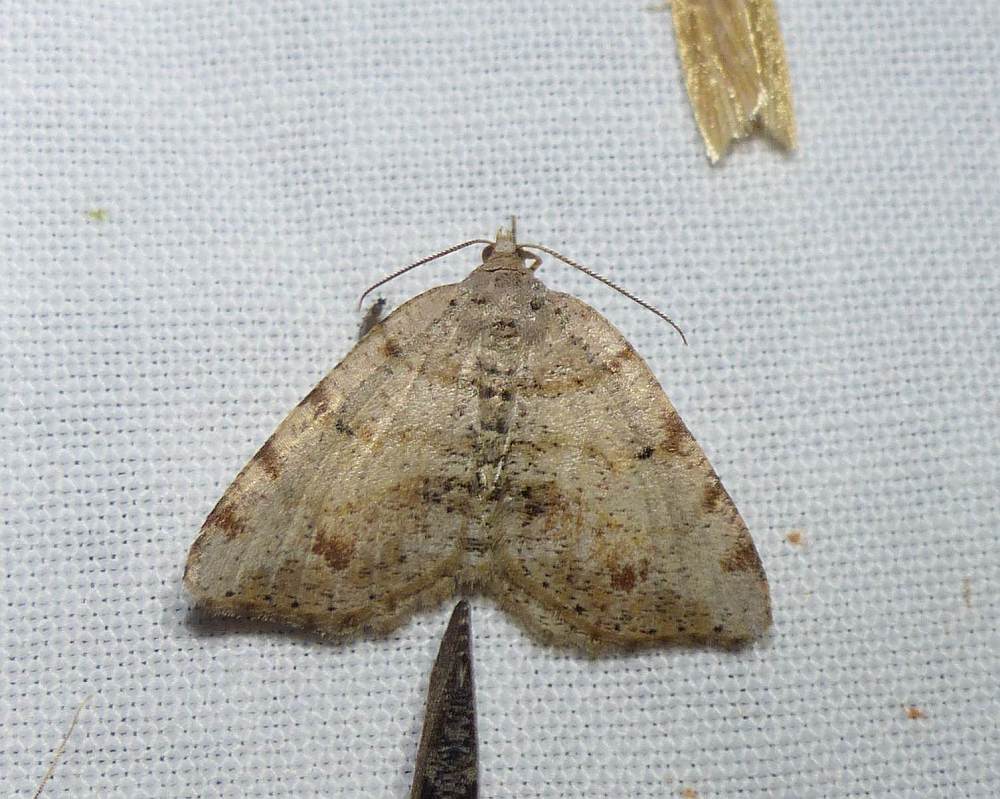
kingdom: Animalia
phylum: Arthropoda
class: Insecta
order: Lepidoptera
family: Geometridae
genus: Macaria
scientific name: Macaria exauspicata
